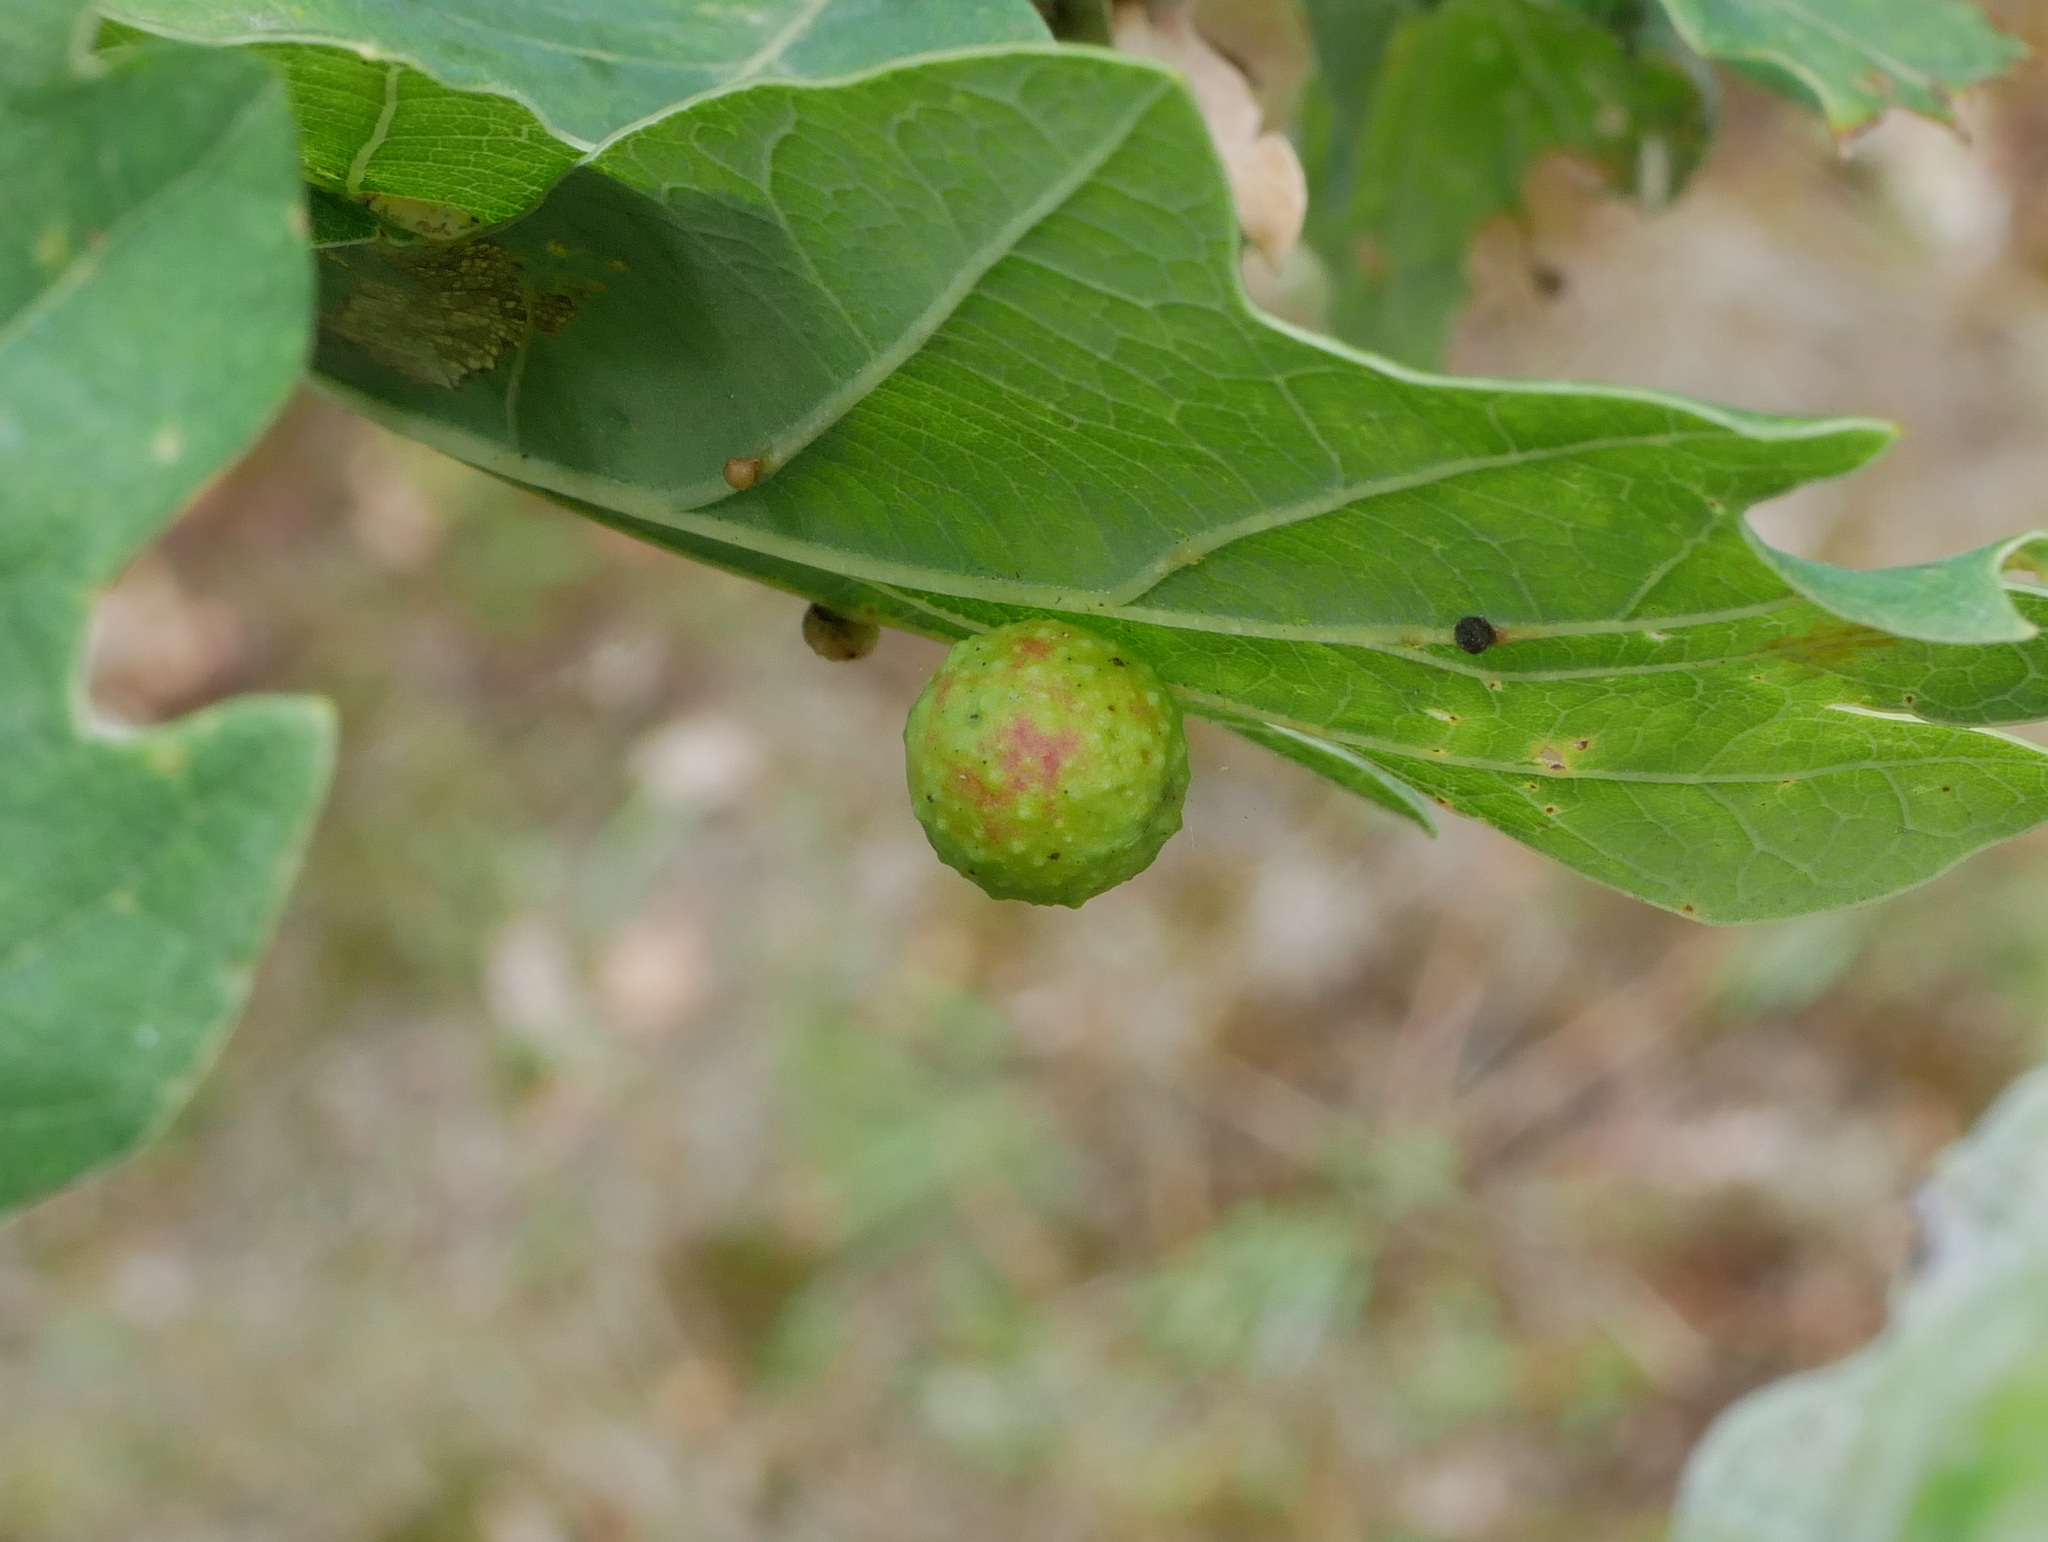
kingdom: Animalia
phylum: Arthropoda
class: Insecta
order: Hymenoptera
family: Cynipidae
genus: Cynips
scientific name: Cynips quercusfolii
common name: Cherry gall
